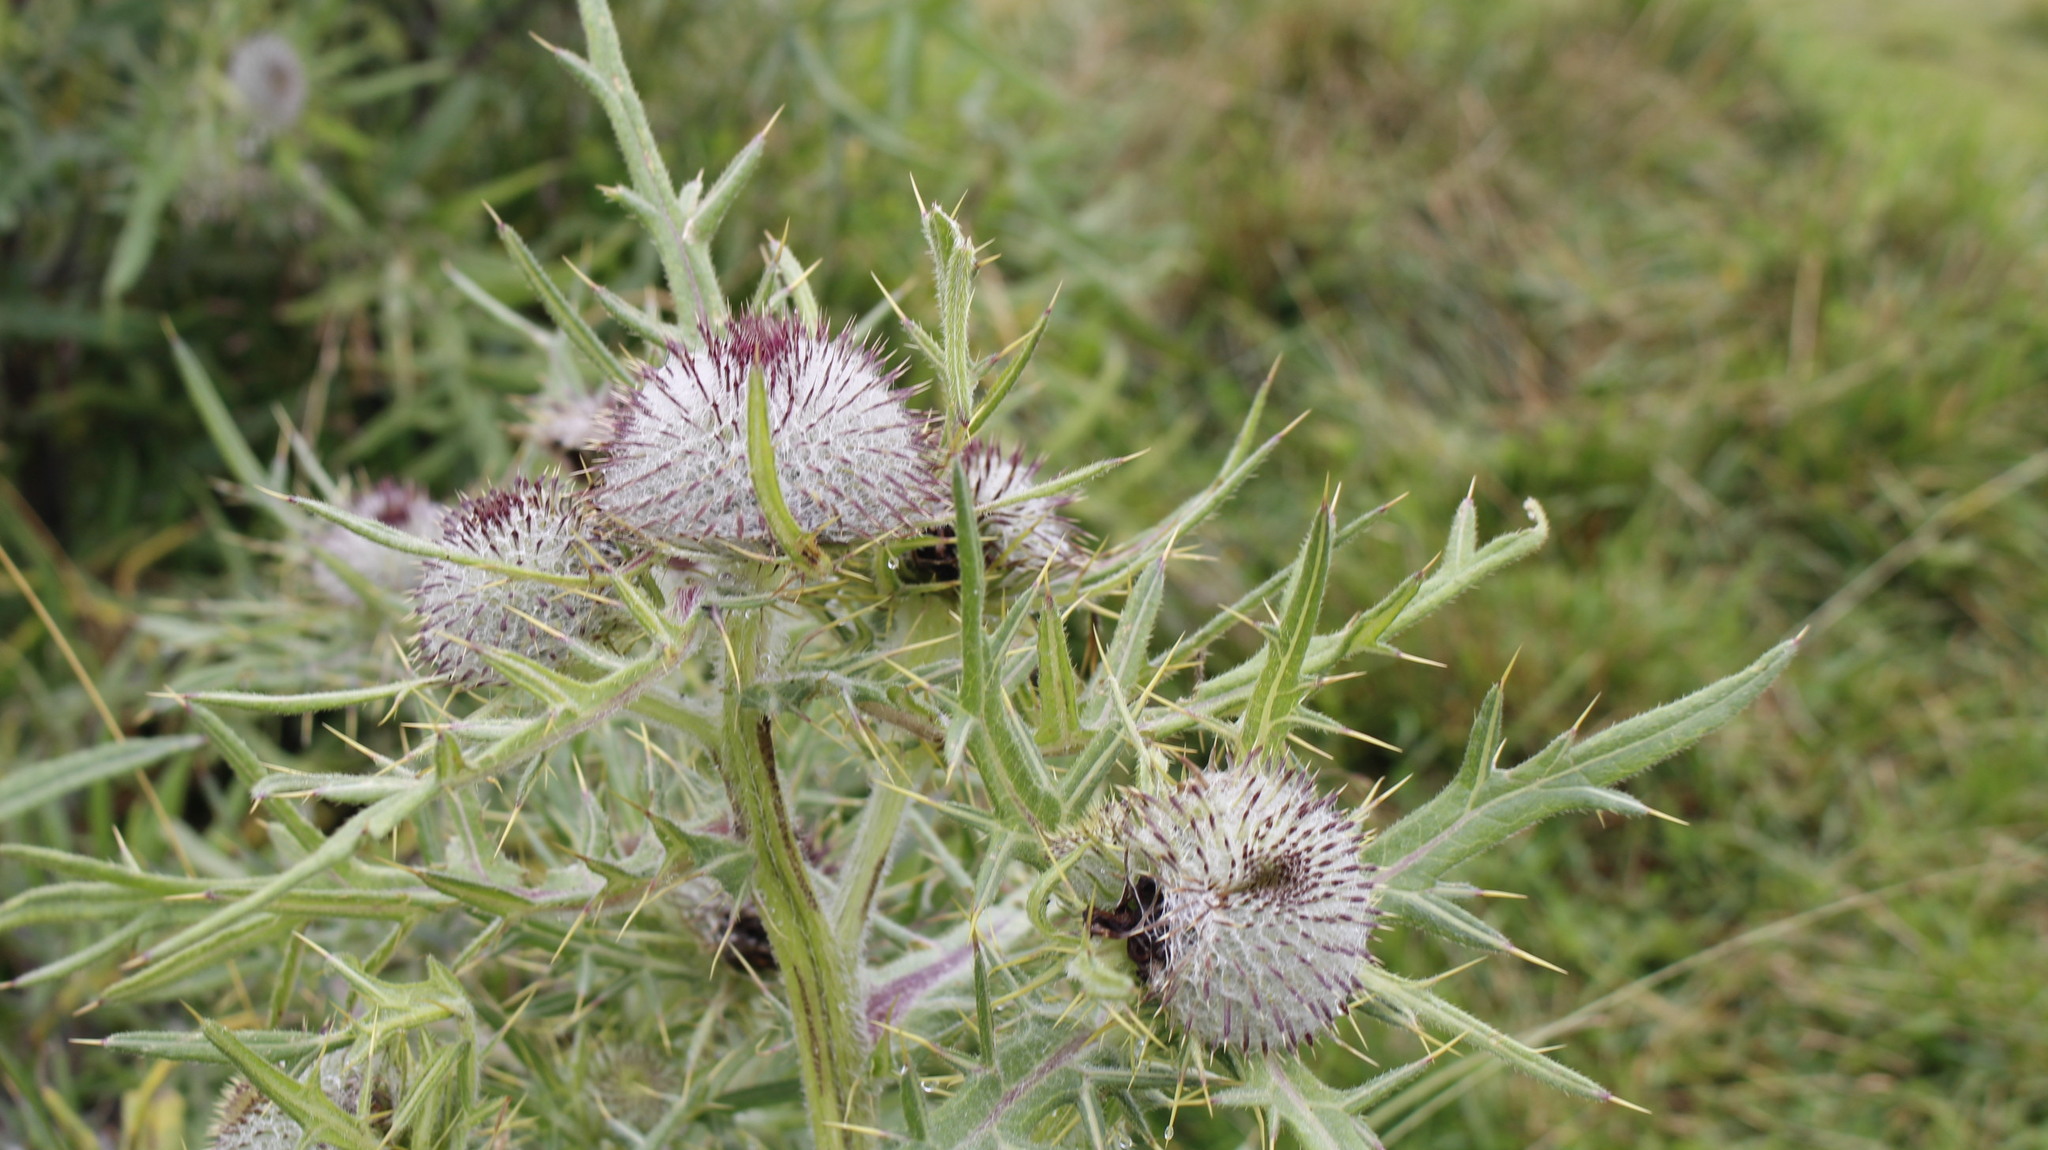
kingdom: Plantae
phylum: Tracheophyta
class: Magnoliopsida
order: Asterales
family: Asteraceae
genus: Lophiolepis
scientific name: Lophiolepis eriophora
